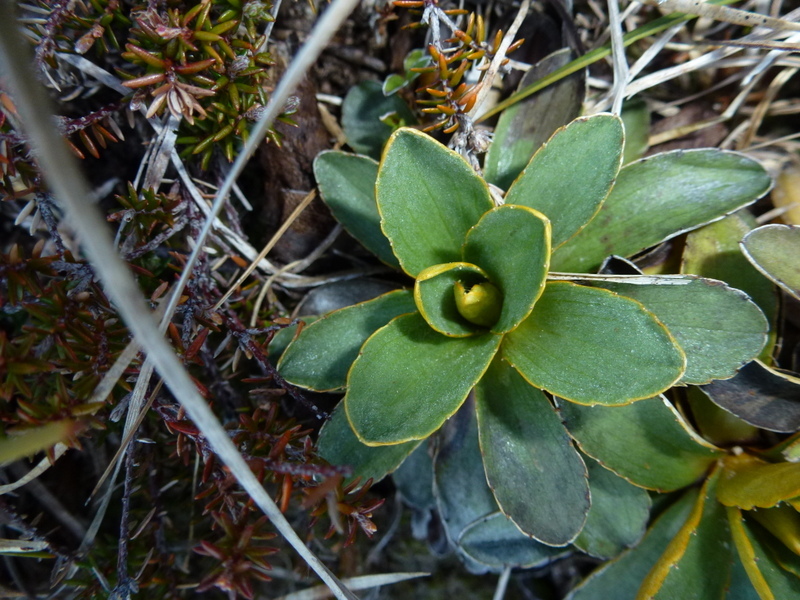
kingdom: Plantae
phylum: Tracheophyta
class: Magnoliopsida
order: Asterales
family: Asteraceae
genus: Celmisia
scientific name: Celmisia hieraciifolia
